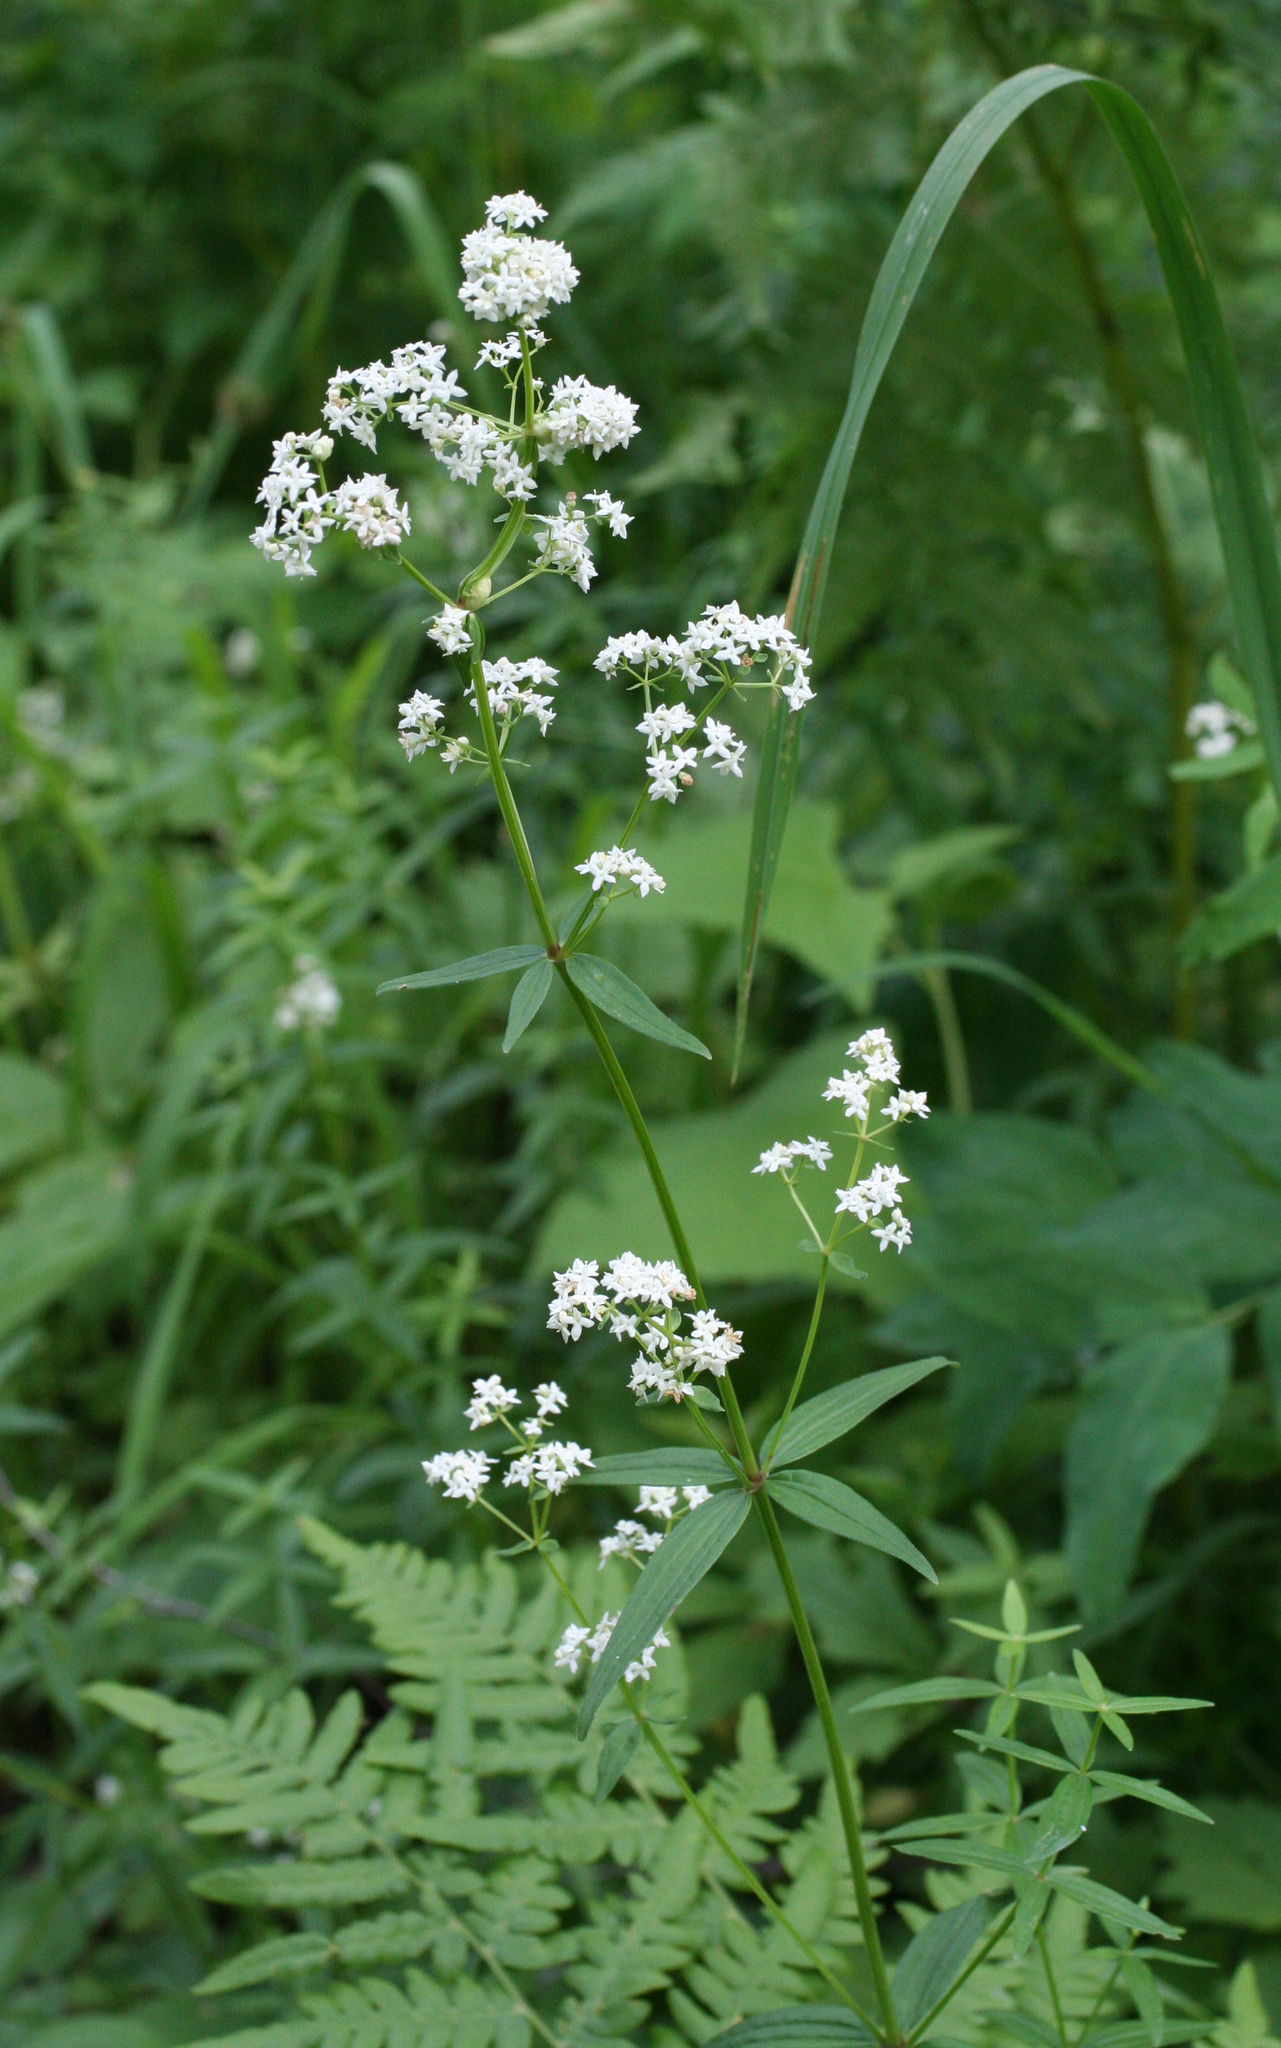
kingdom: Plantae
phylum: Tracheophyta
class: Magnoliopsida
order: Gentianales
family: Rubiaceae
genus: Galium
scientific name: Galium boreale
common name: Northern bedstraw
